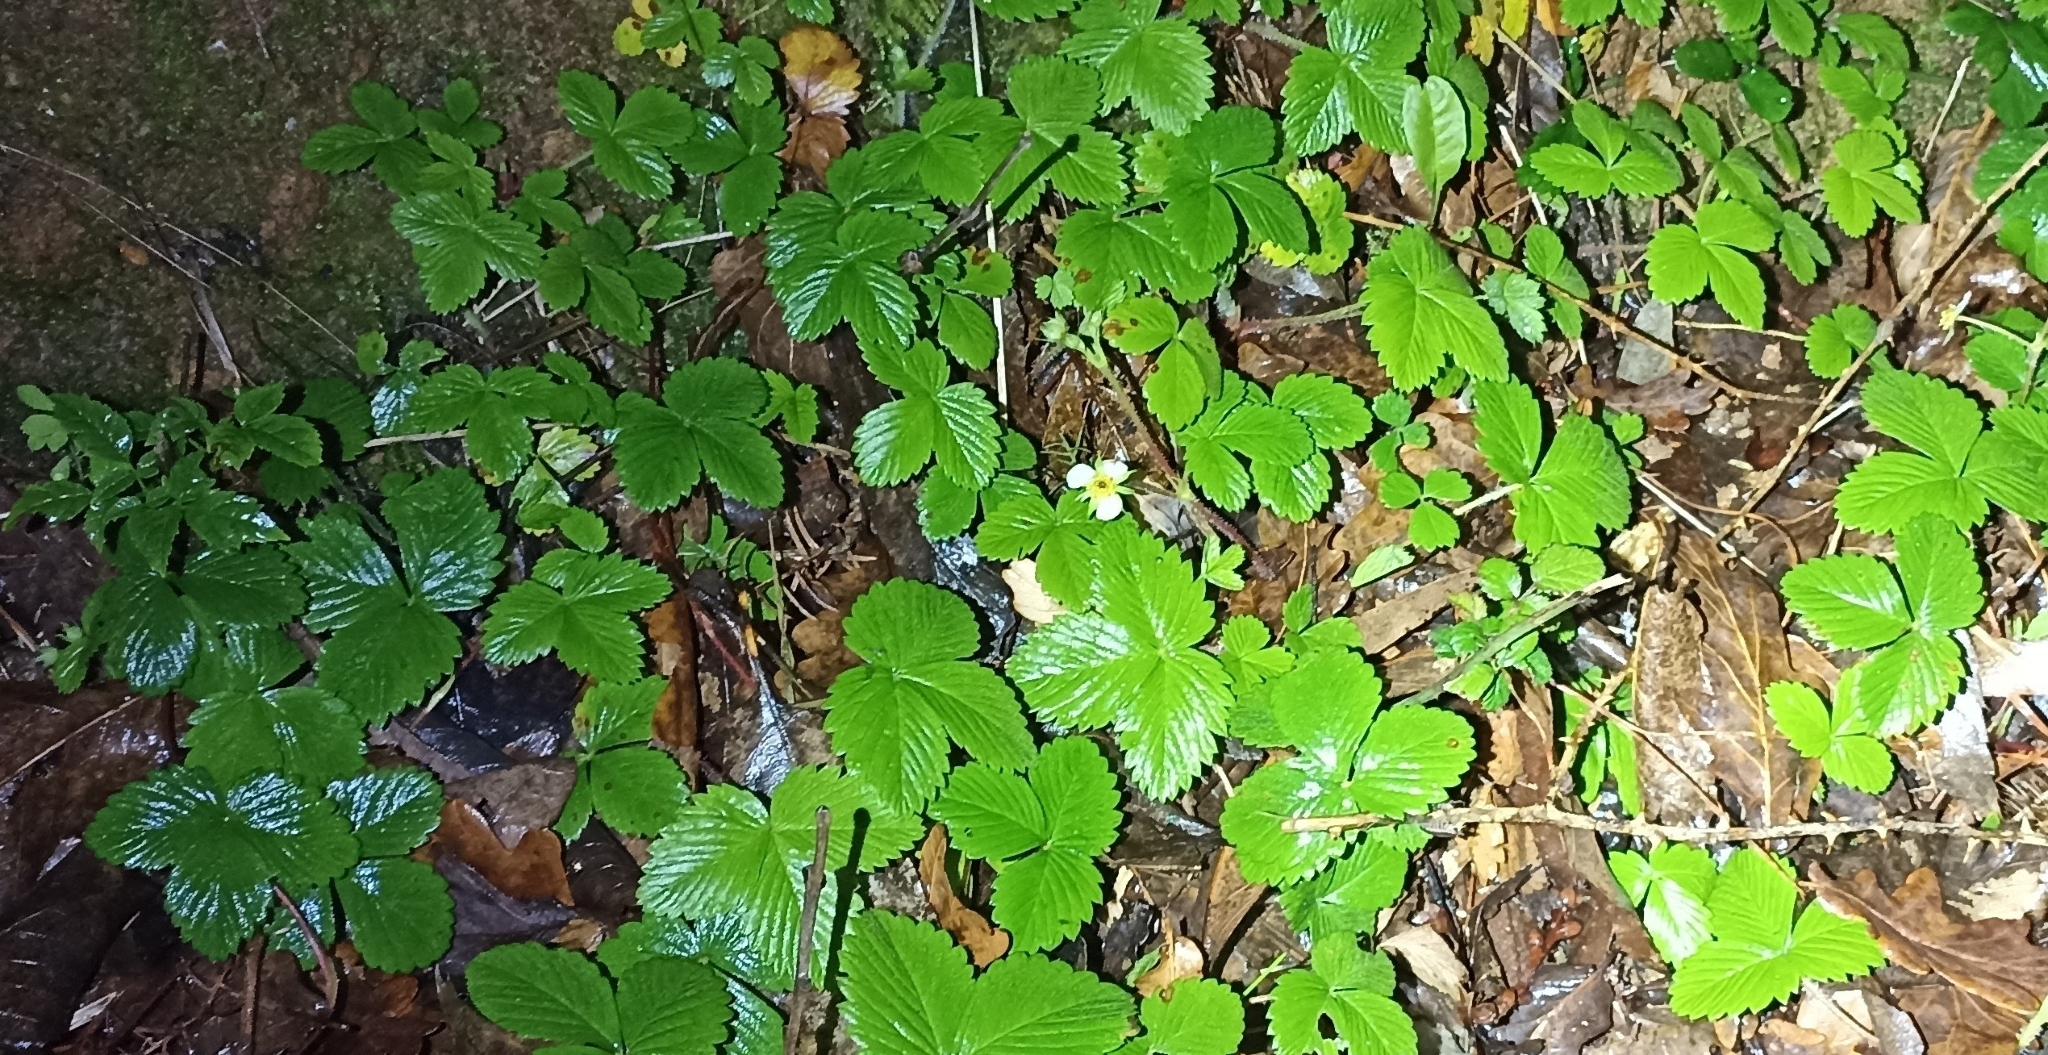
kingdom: Plantae
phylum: Tracheophyta
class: Magnoliopsida
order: Rosales
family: Rosaceae
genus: Fragaria
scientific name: Fragaria vesca
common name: Wild strawberry
